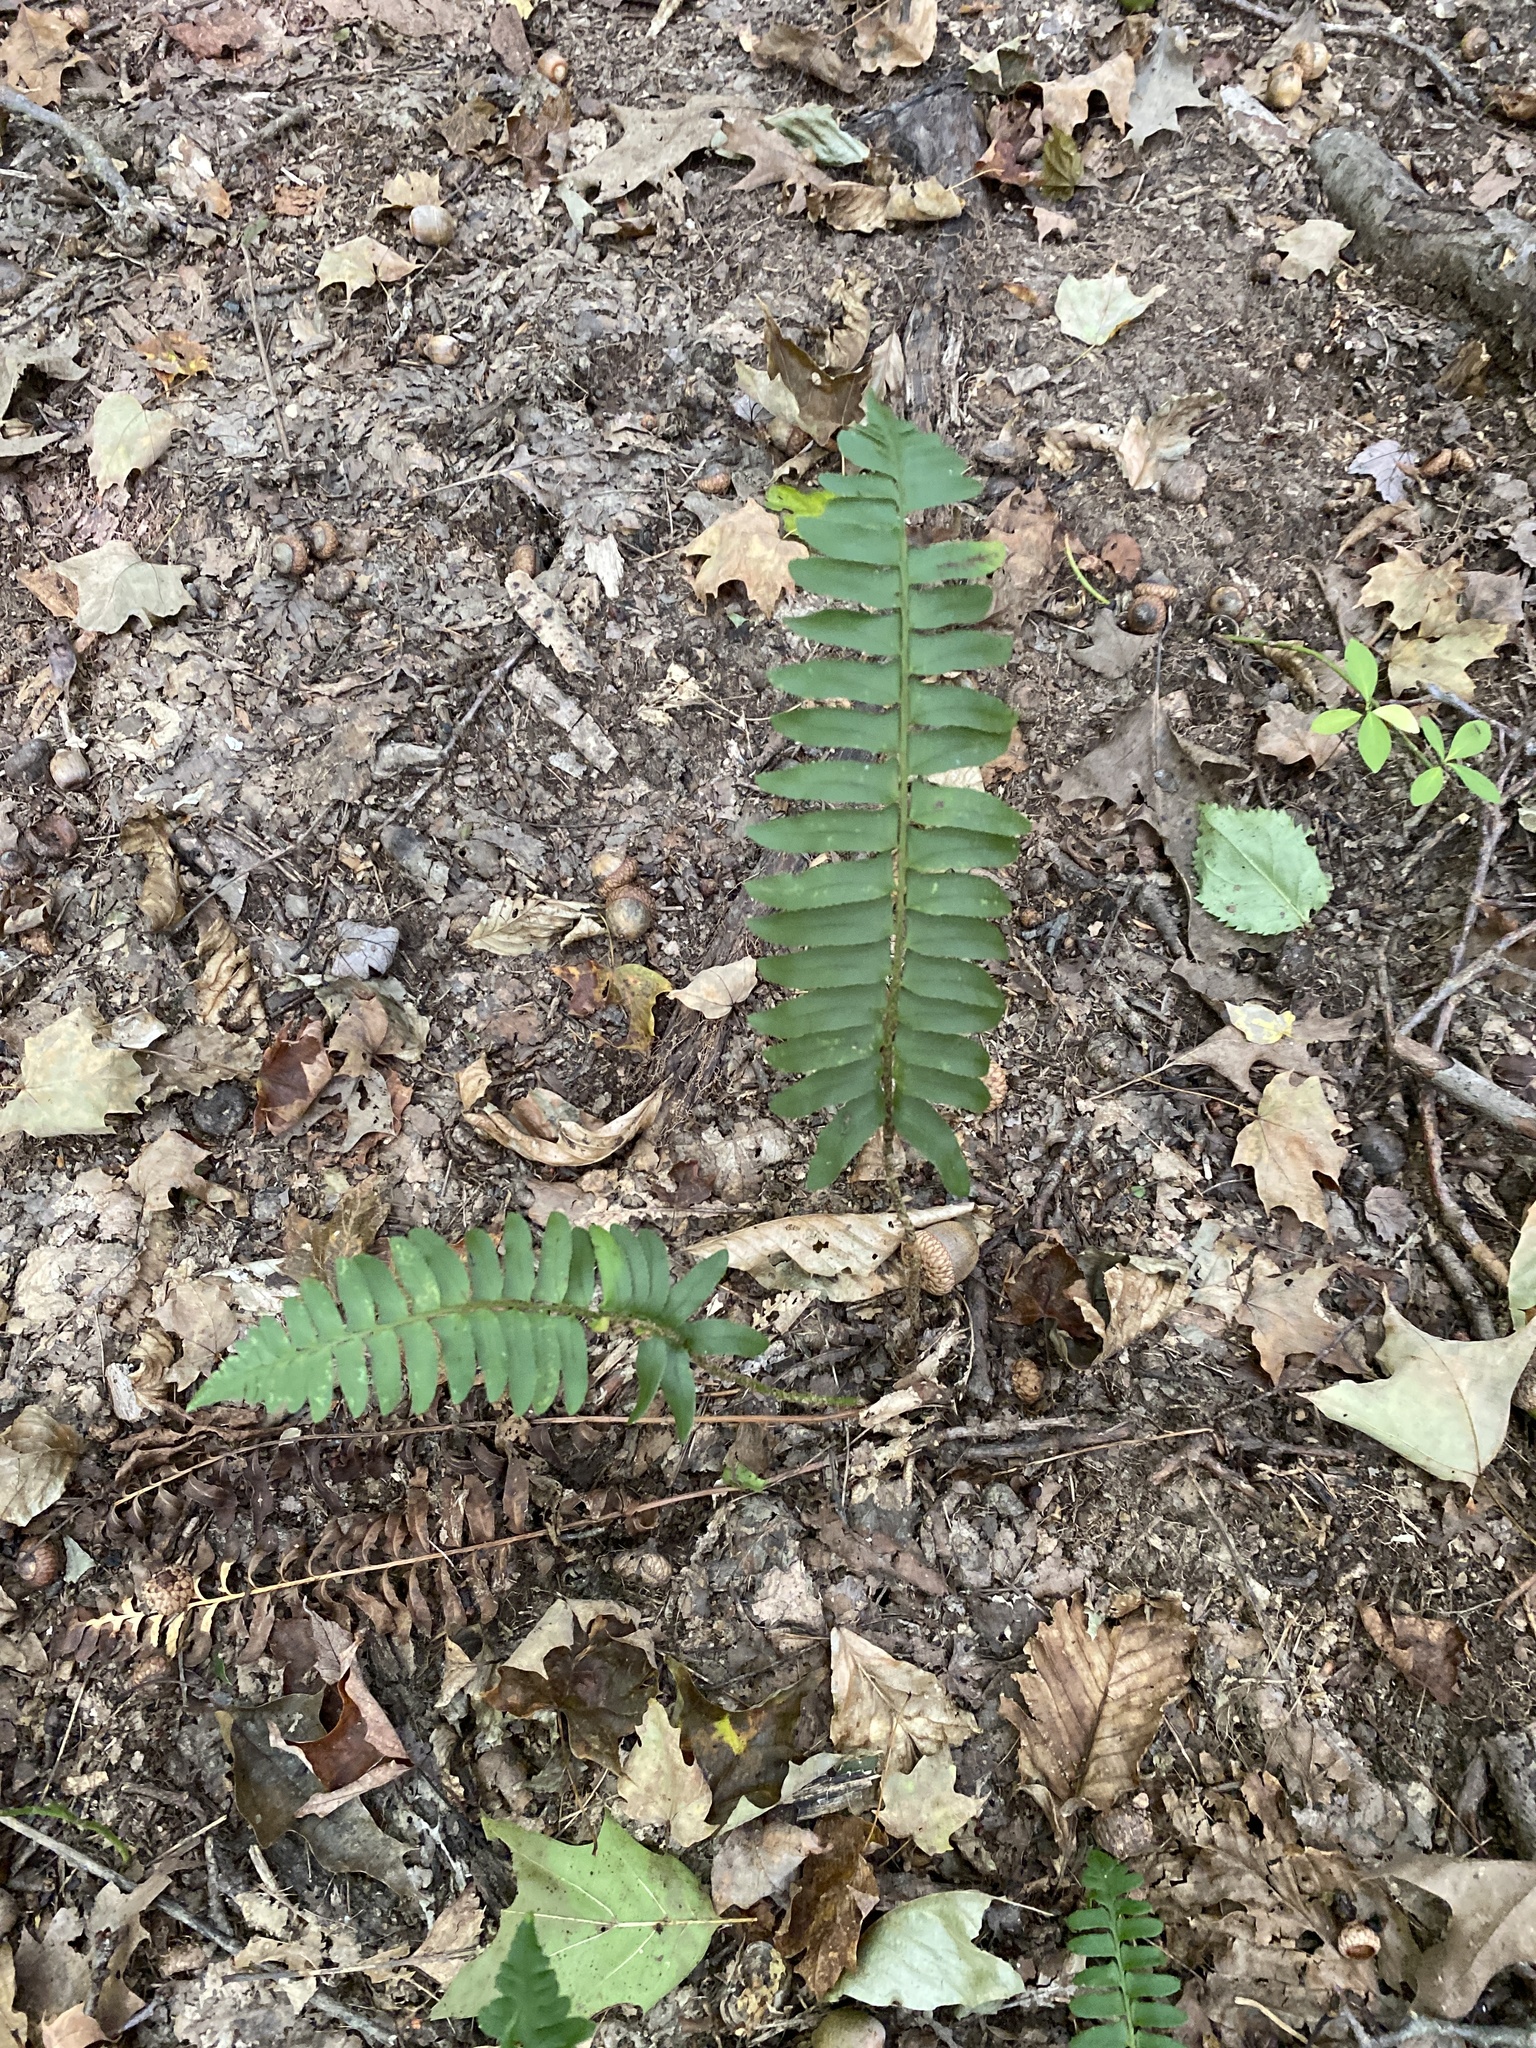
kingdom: Plantae
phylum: Tracheophyta
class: Polypodiopsida
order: Polypodiales
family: Dryopteridaceae
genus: Polystichum
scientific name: Polystichum acrostichoides
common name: Christmas fern
